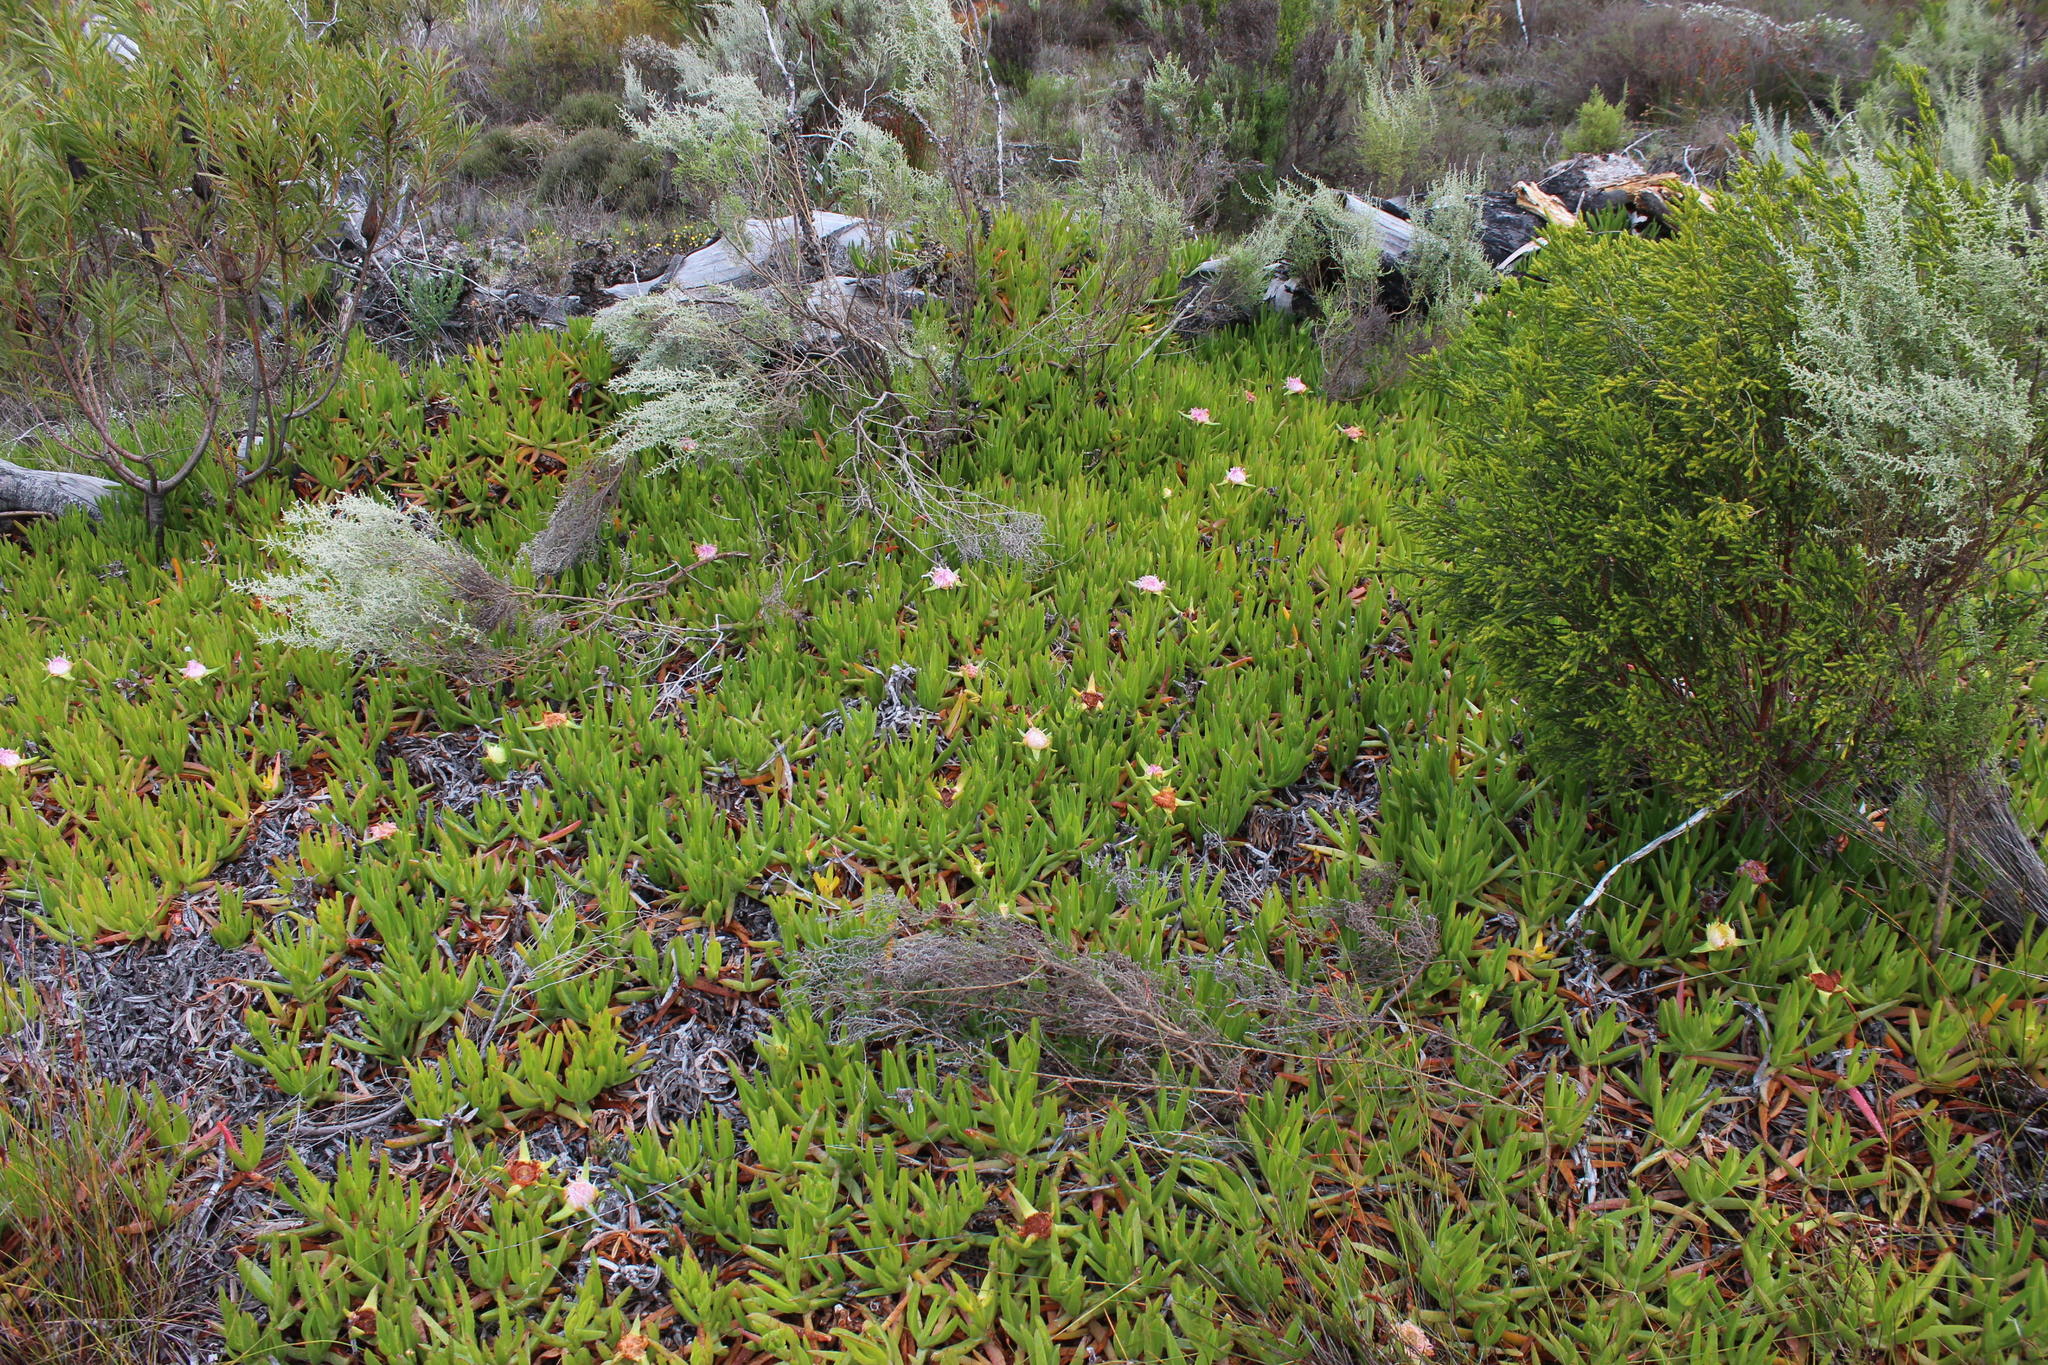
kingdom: Plantae
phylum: Tracheophyta
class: Magnoliopsida
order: Caryophyllales
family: Aizoaceae
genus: Carpobrotus
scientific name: Carpobrotus edulis
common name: Hottentot-fig
